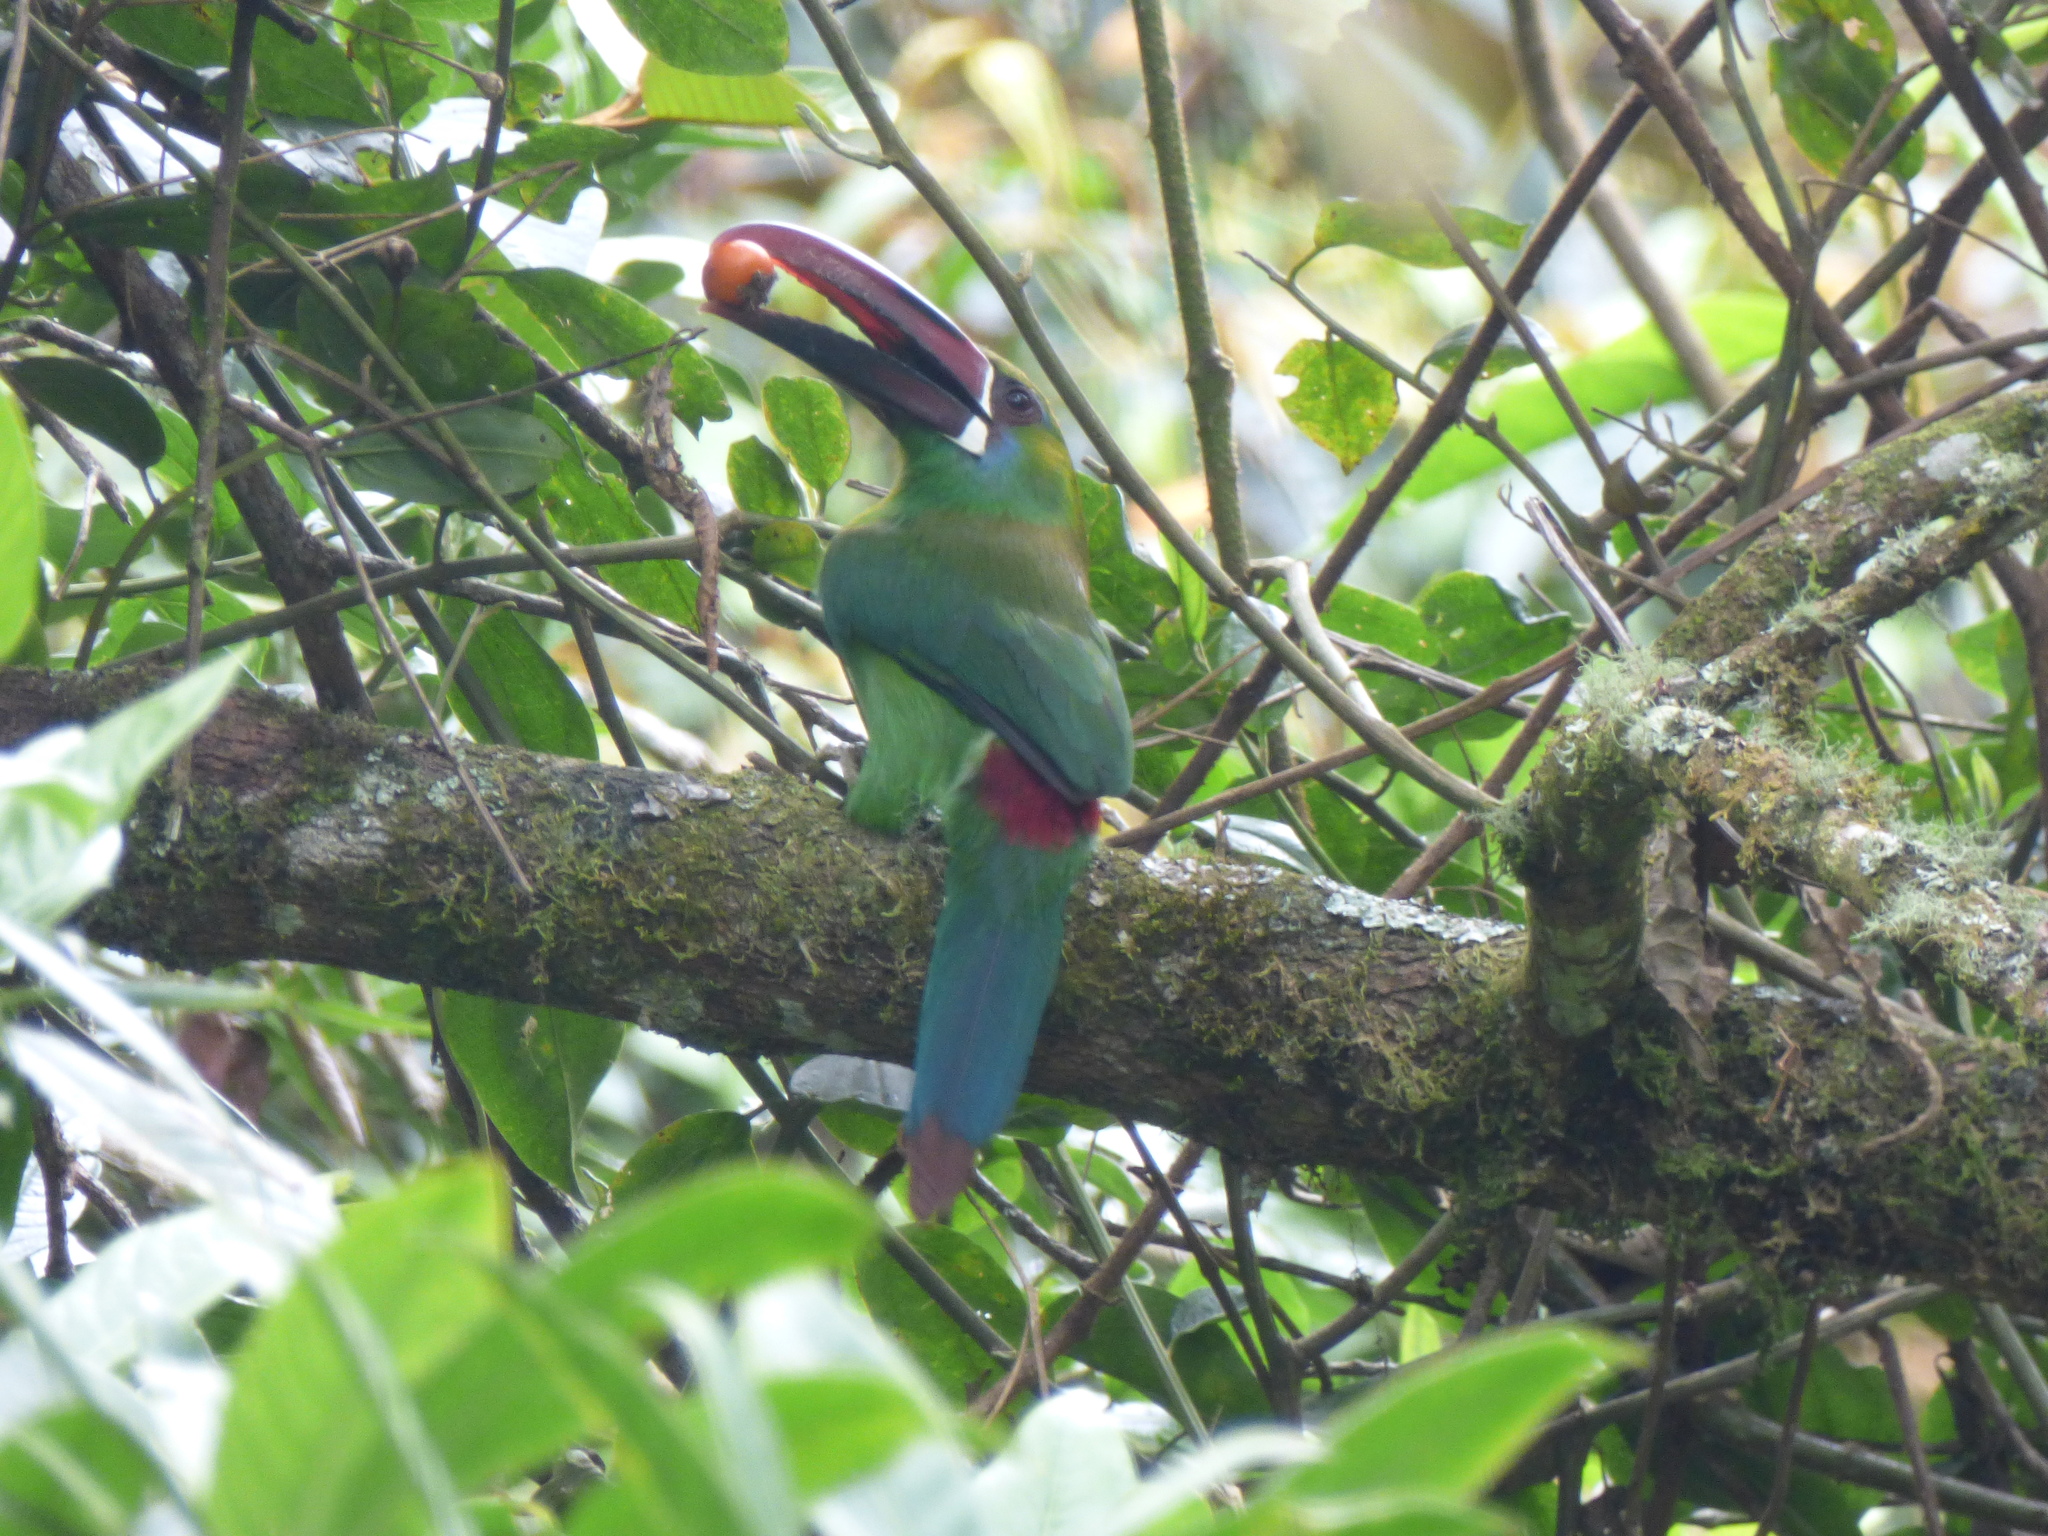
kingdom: Animalia
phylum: Chordata
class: Aves
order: Piciformes
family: Ramphastidae
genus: Aulacorhynchus
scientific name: Aulacorhynchus haematopygus
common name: Crimson-rumped toucanet
